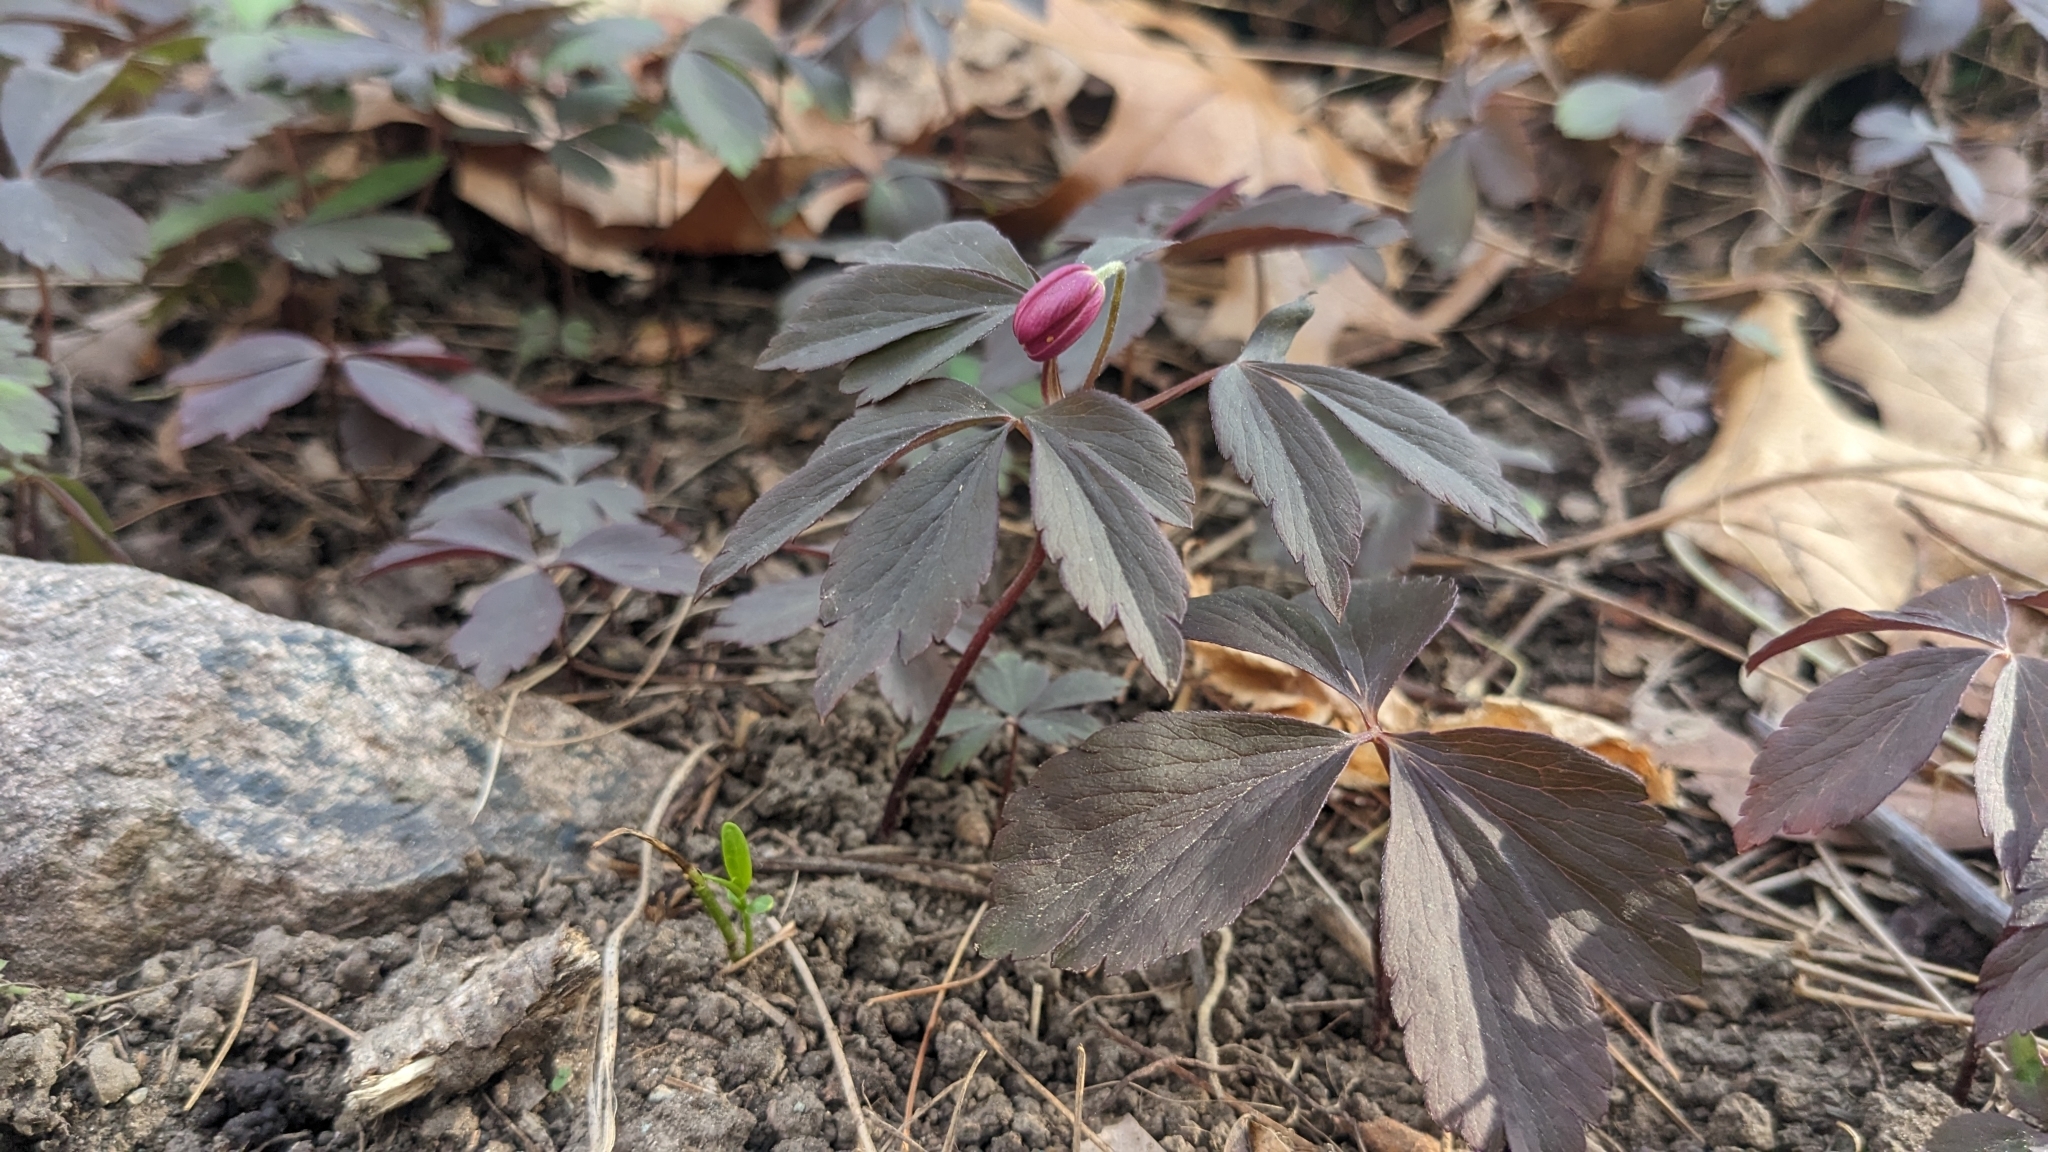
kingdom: Plantae
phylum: Tracheophyta
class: Magnoliopsida
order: Ranunculales
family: Ranunculaceae
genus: Anemone
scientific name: Anemone quinquefolia
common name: Wood anemone
